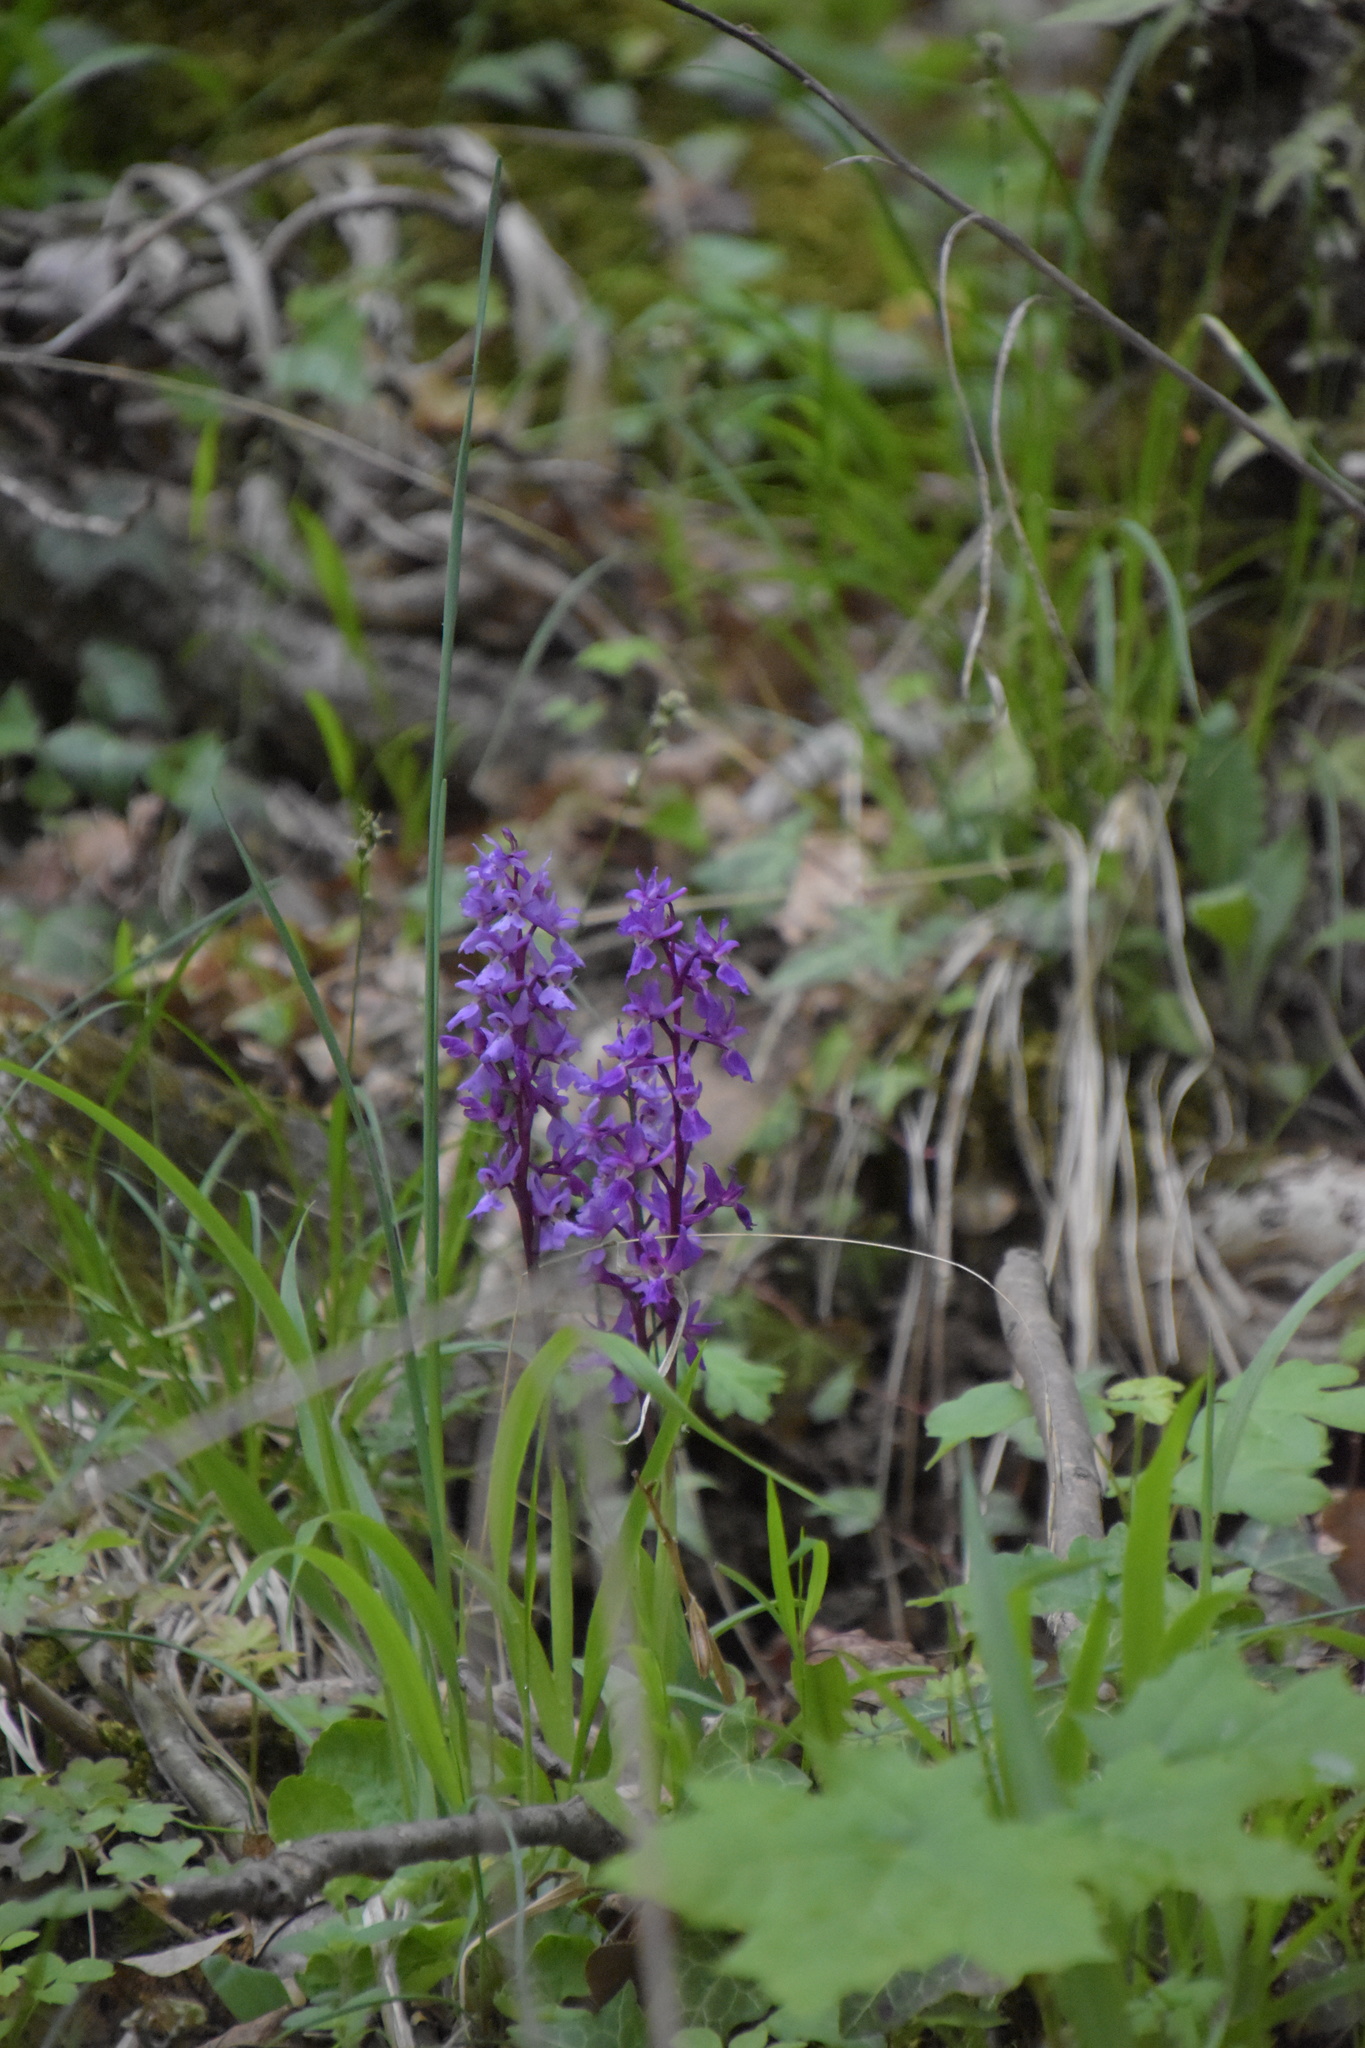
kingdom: Plantae
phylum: Tracheophyta
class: Liliopsida
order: Asparagales
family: Orchidaceae
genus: Orchis
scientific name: Orchis mascula
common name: Early-purple orchid
